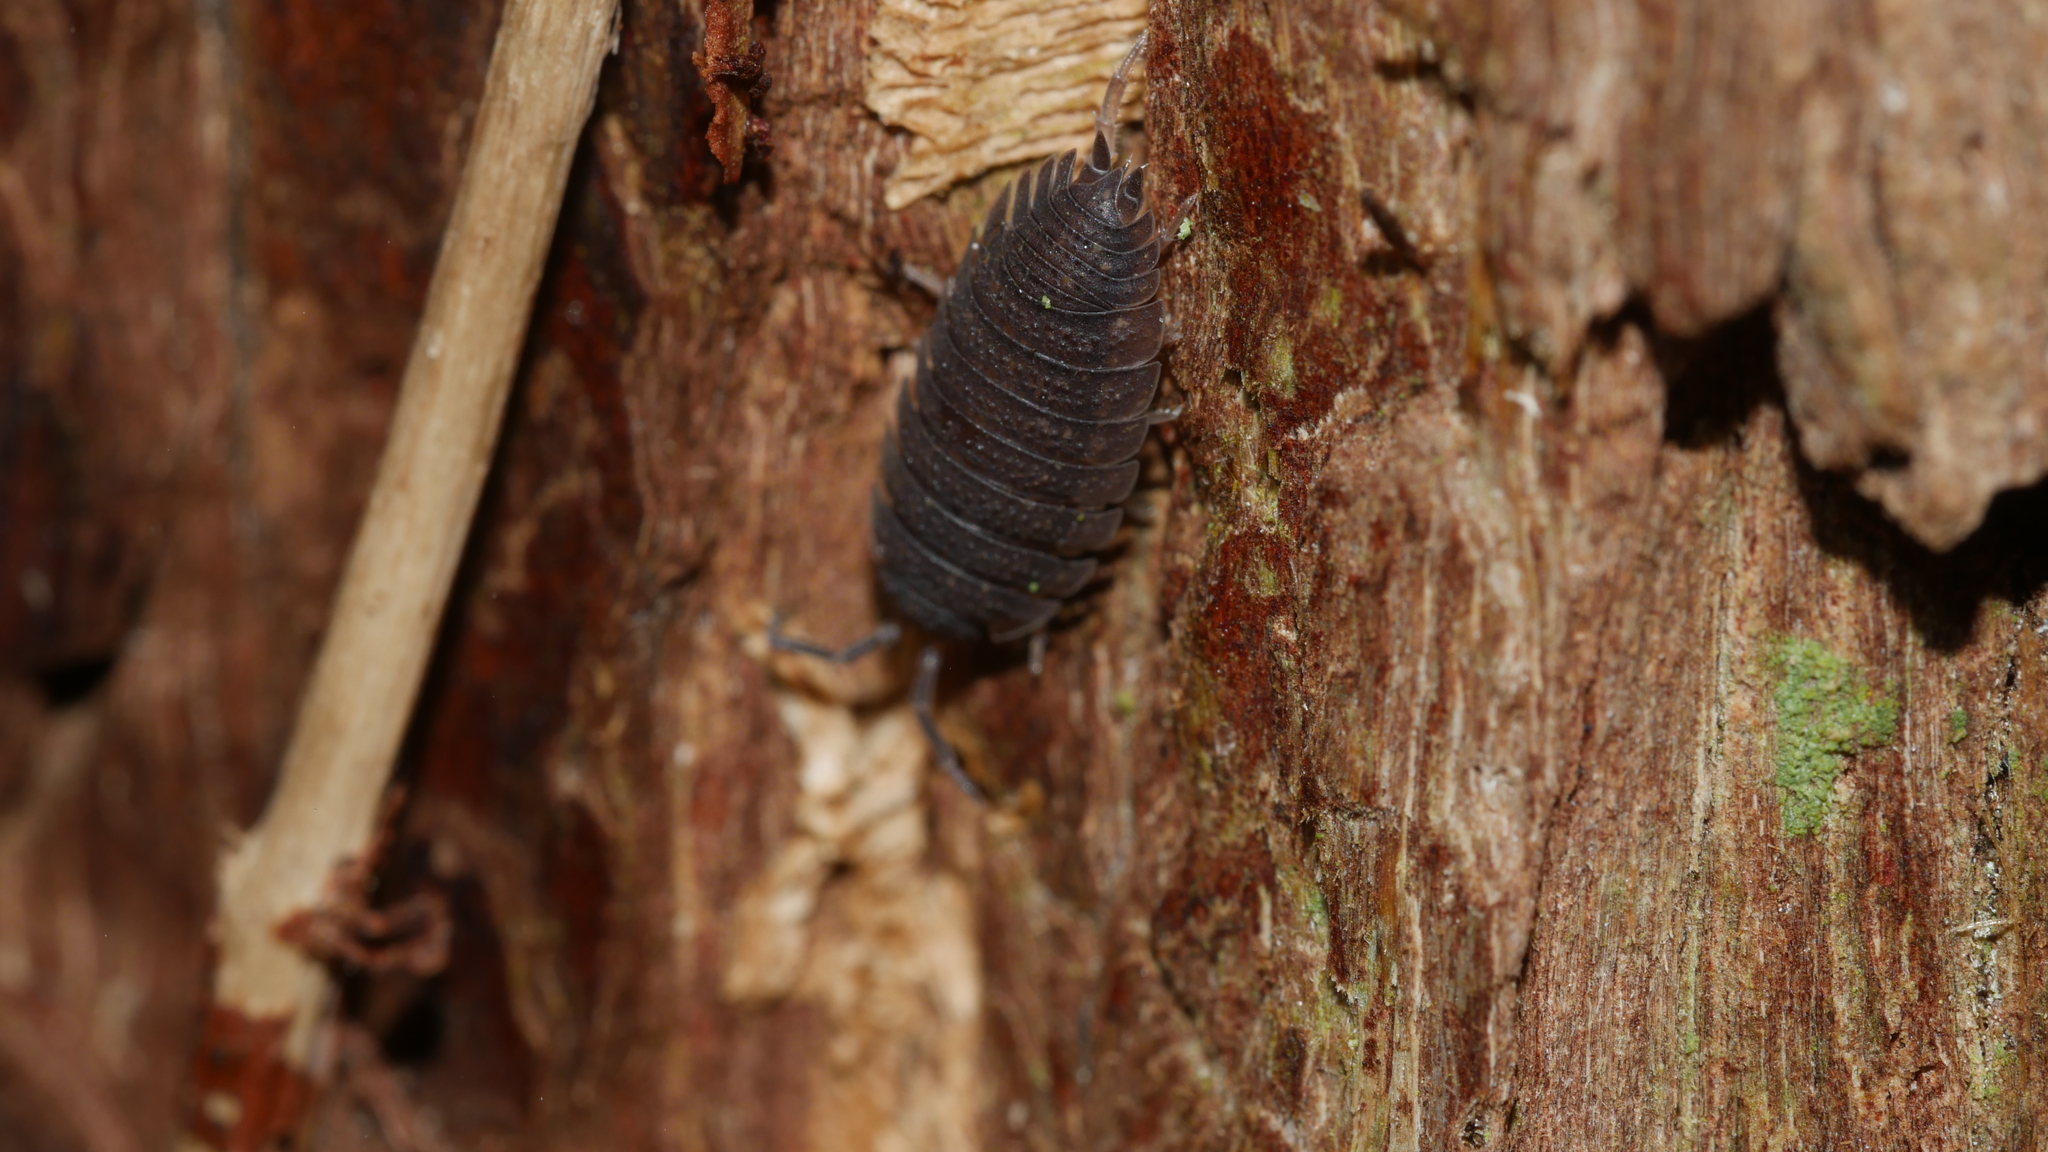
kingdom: Animalia
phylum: Arthropoda
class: Malacostraca
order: Isopoda
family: Porcellionidae
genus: Porcellio
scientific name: Porcellio scaber
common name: Common rough woodlouse
